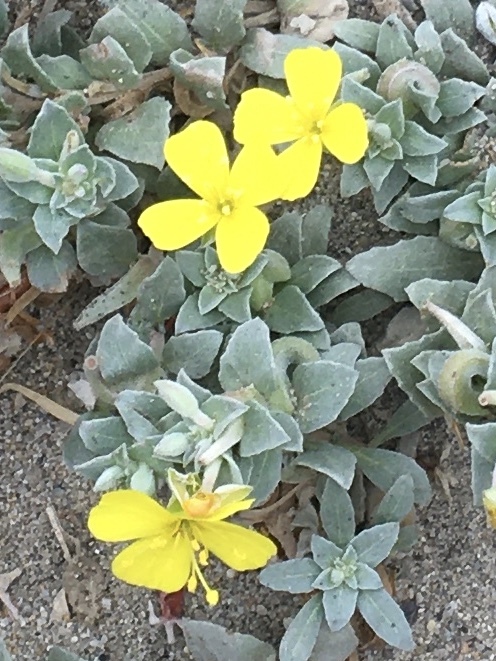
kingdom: Plantae
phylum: Tracheophyta
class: Magnoliopsida
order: Myrtales
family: Onagraceae
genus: Camissoniopsis
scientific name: Camissoniopsis cheiranthifolia
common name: Beach suncup
